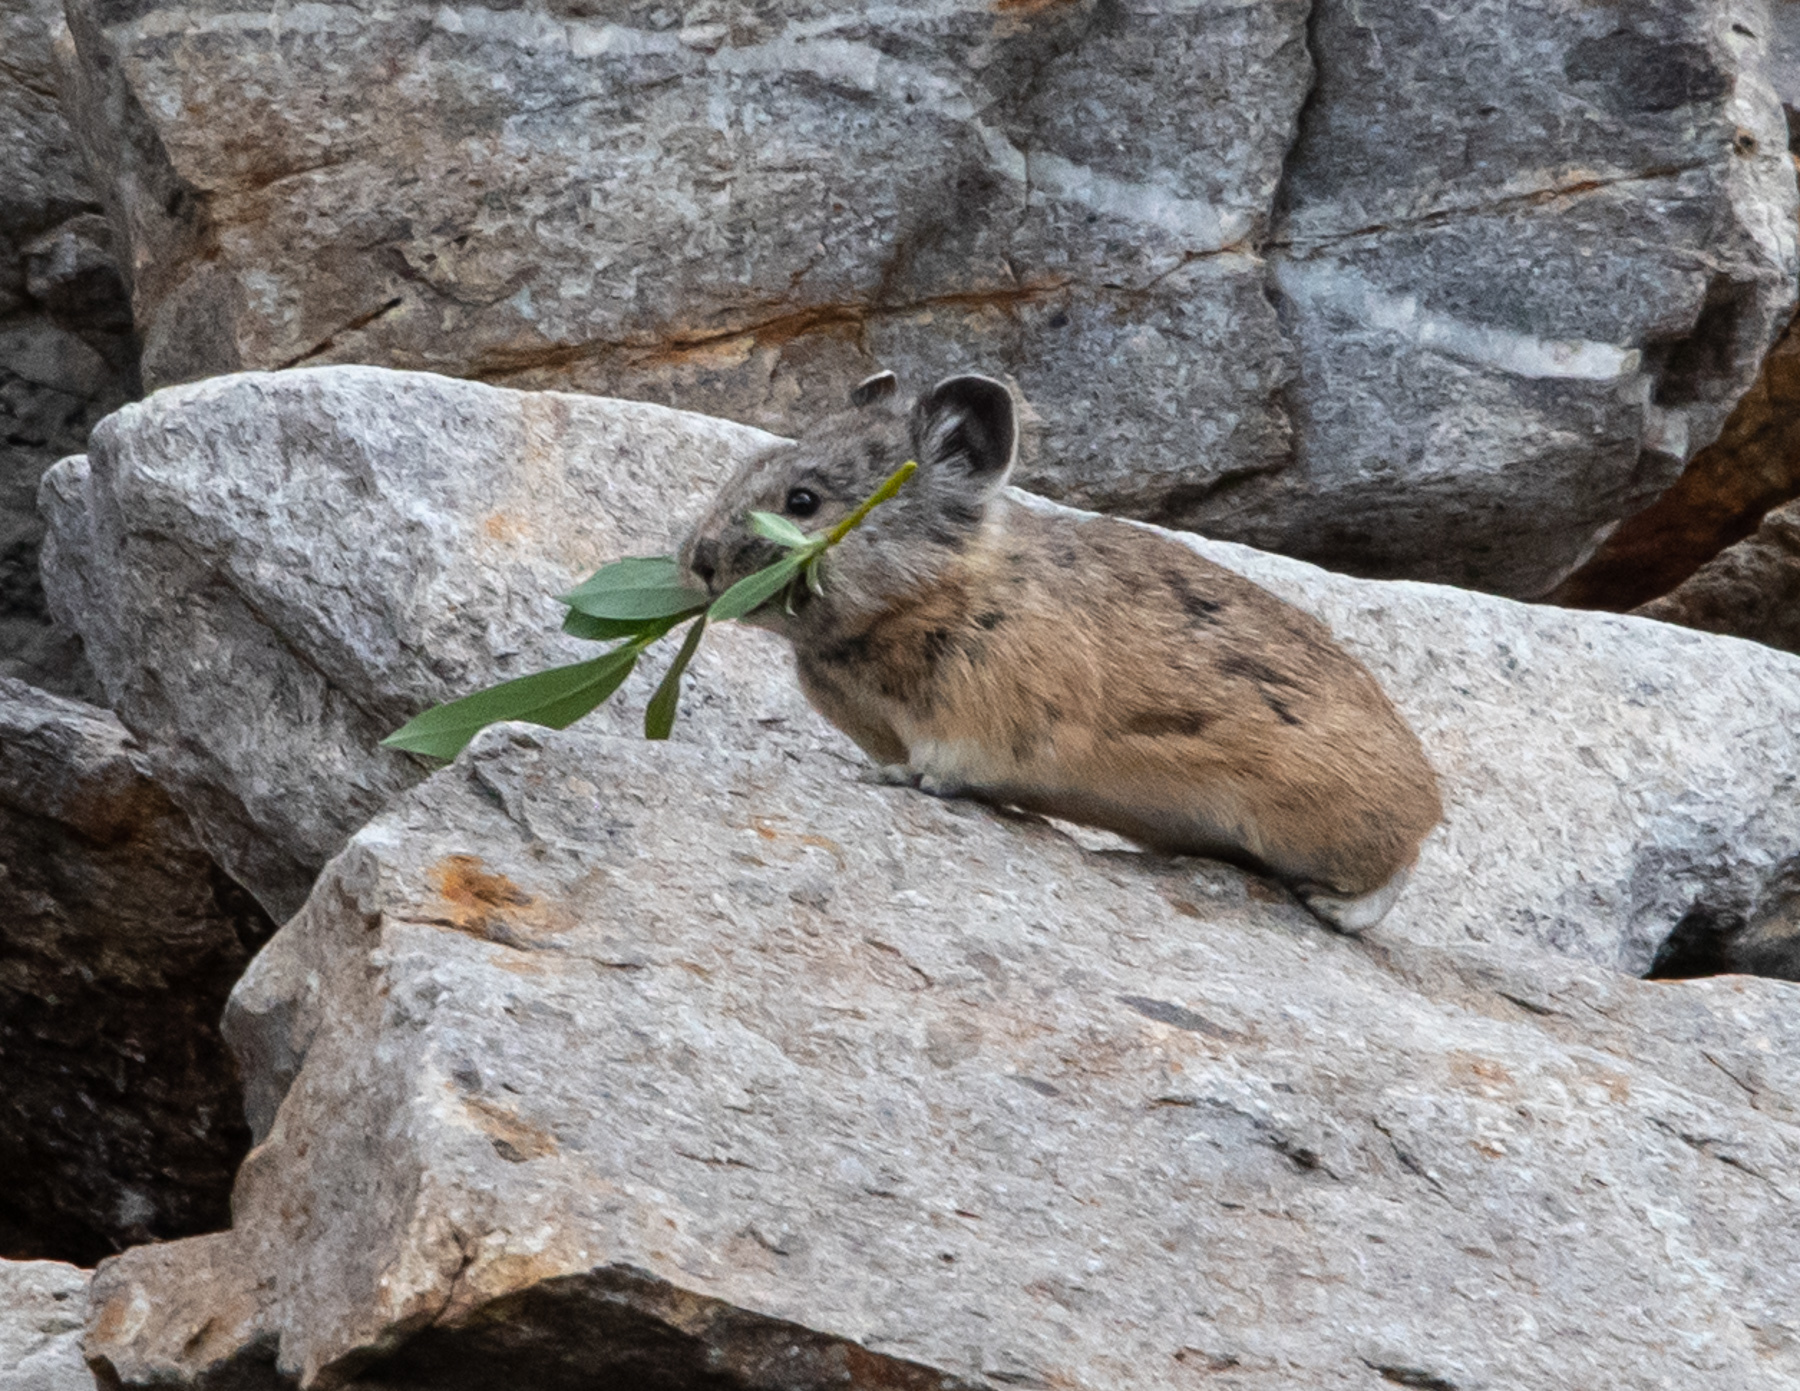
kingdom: Animalia
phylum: Chordata
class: Mammalia
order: Lagomorpha
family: Ochotonidae
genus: Ochotona
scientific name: Ochotona princeps
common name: American pika
